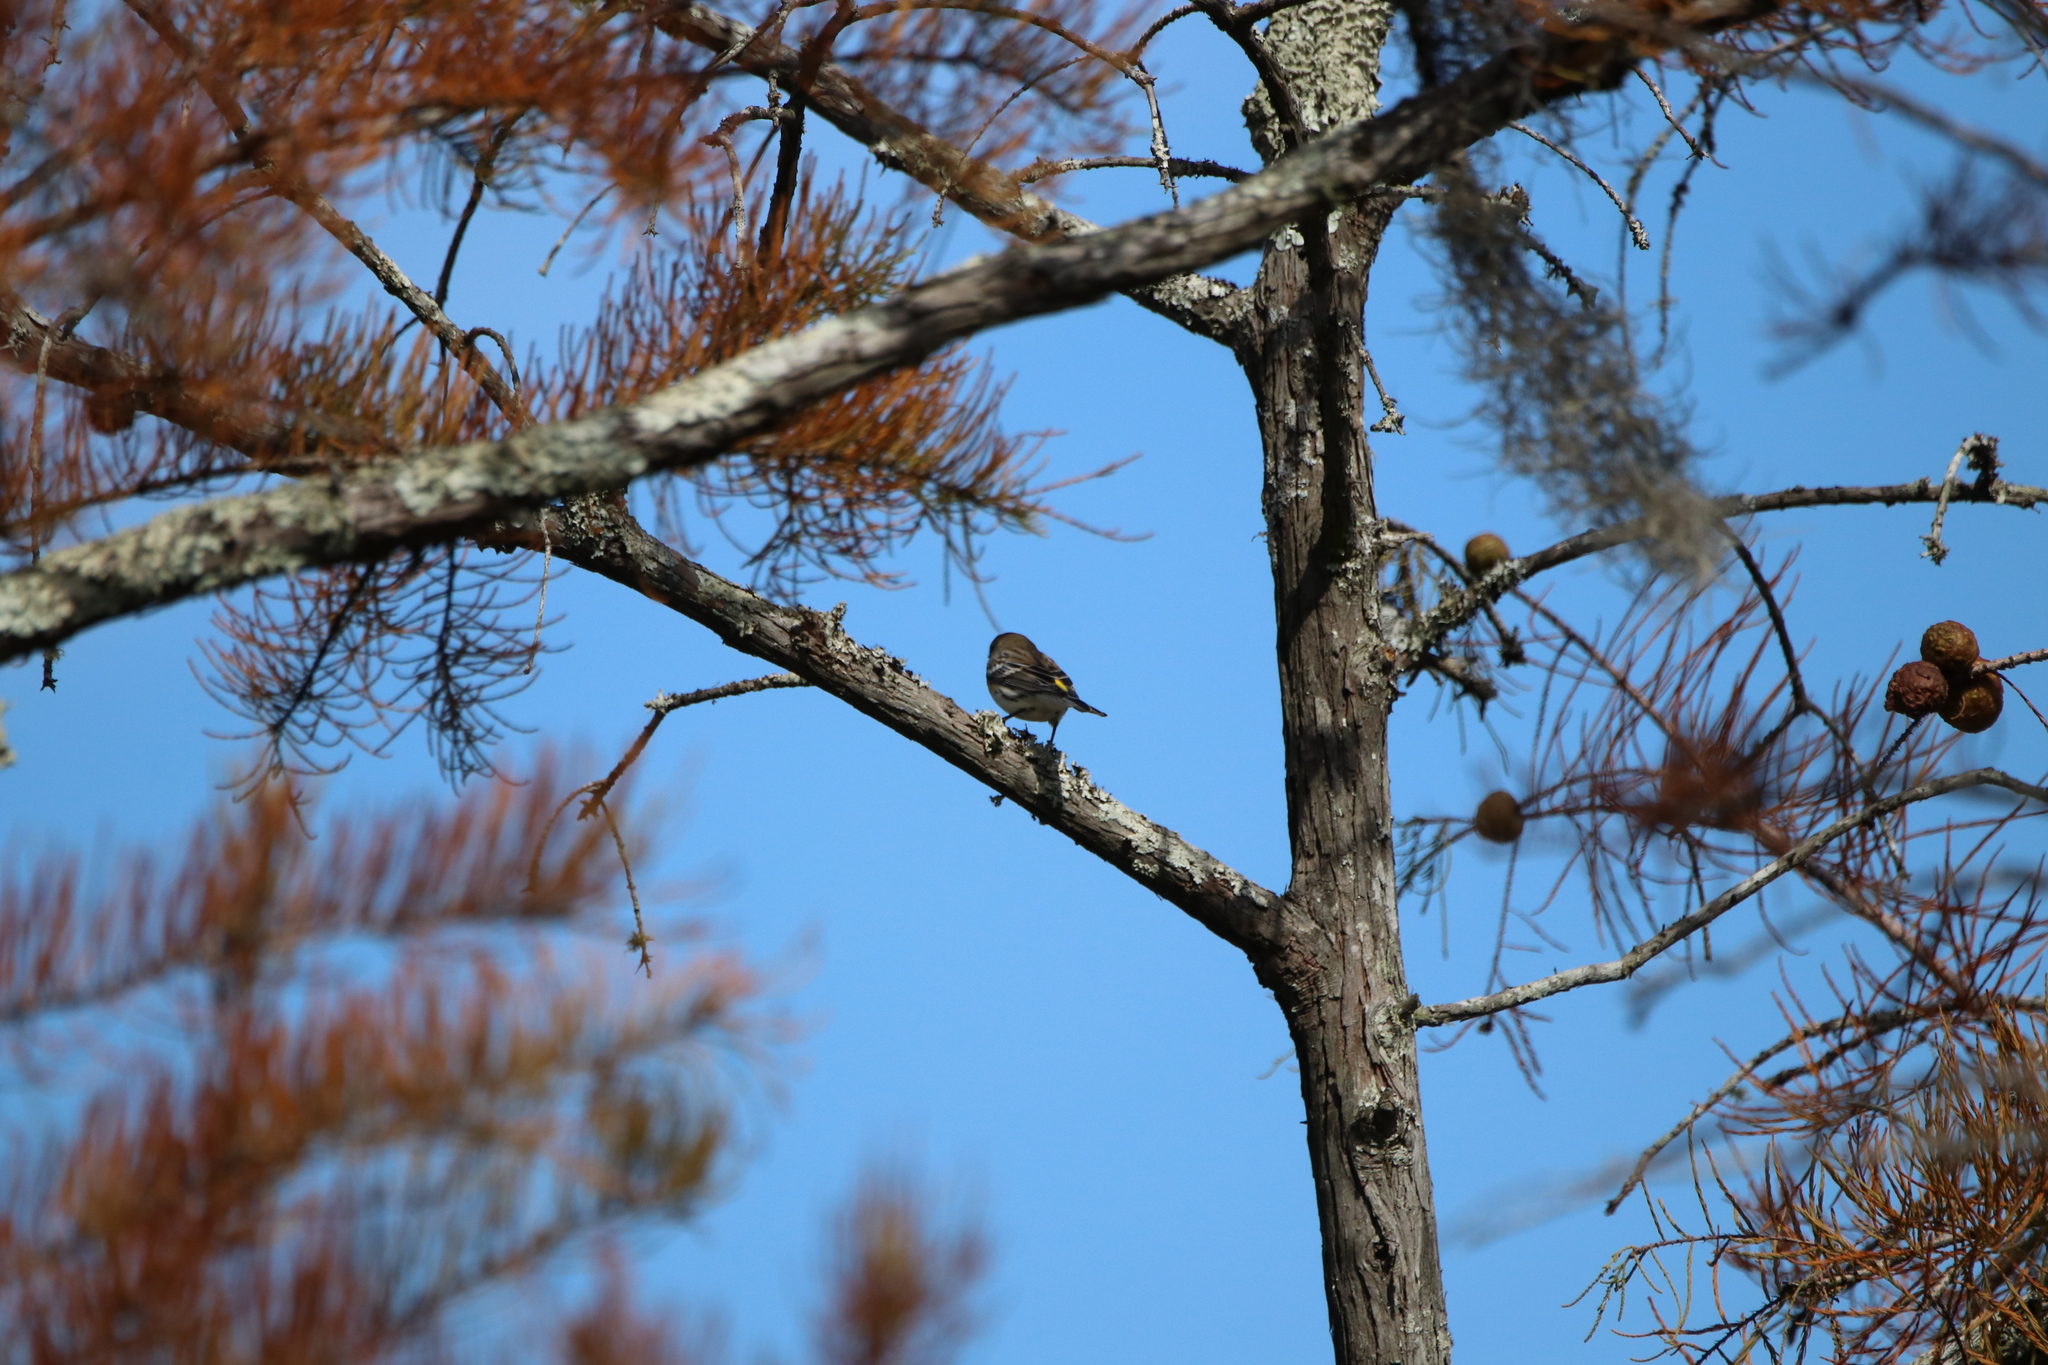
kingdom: Animalia
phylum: Chordata
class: Aves
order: Passeriformes
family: Parulidae
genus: Setophaga
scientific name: Setophaga coronata
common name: Myrtle warbler
